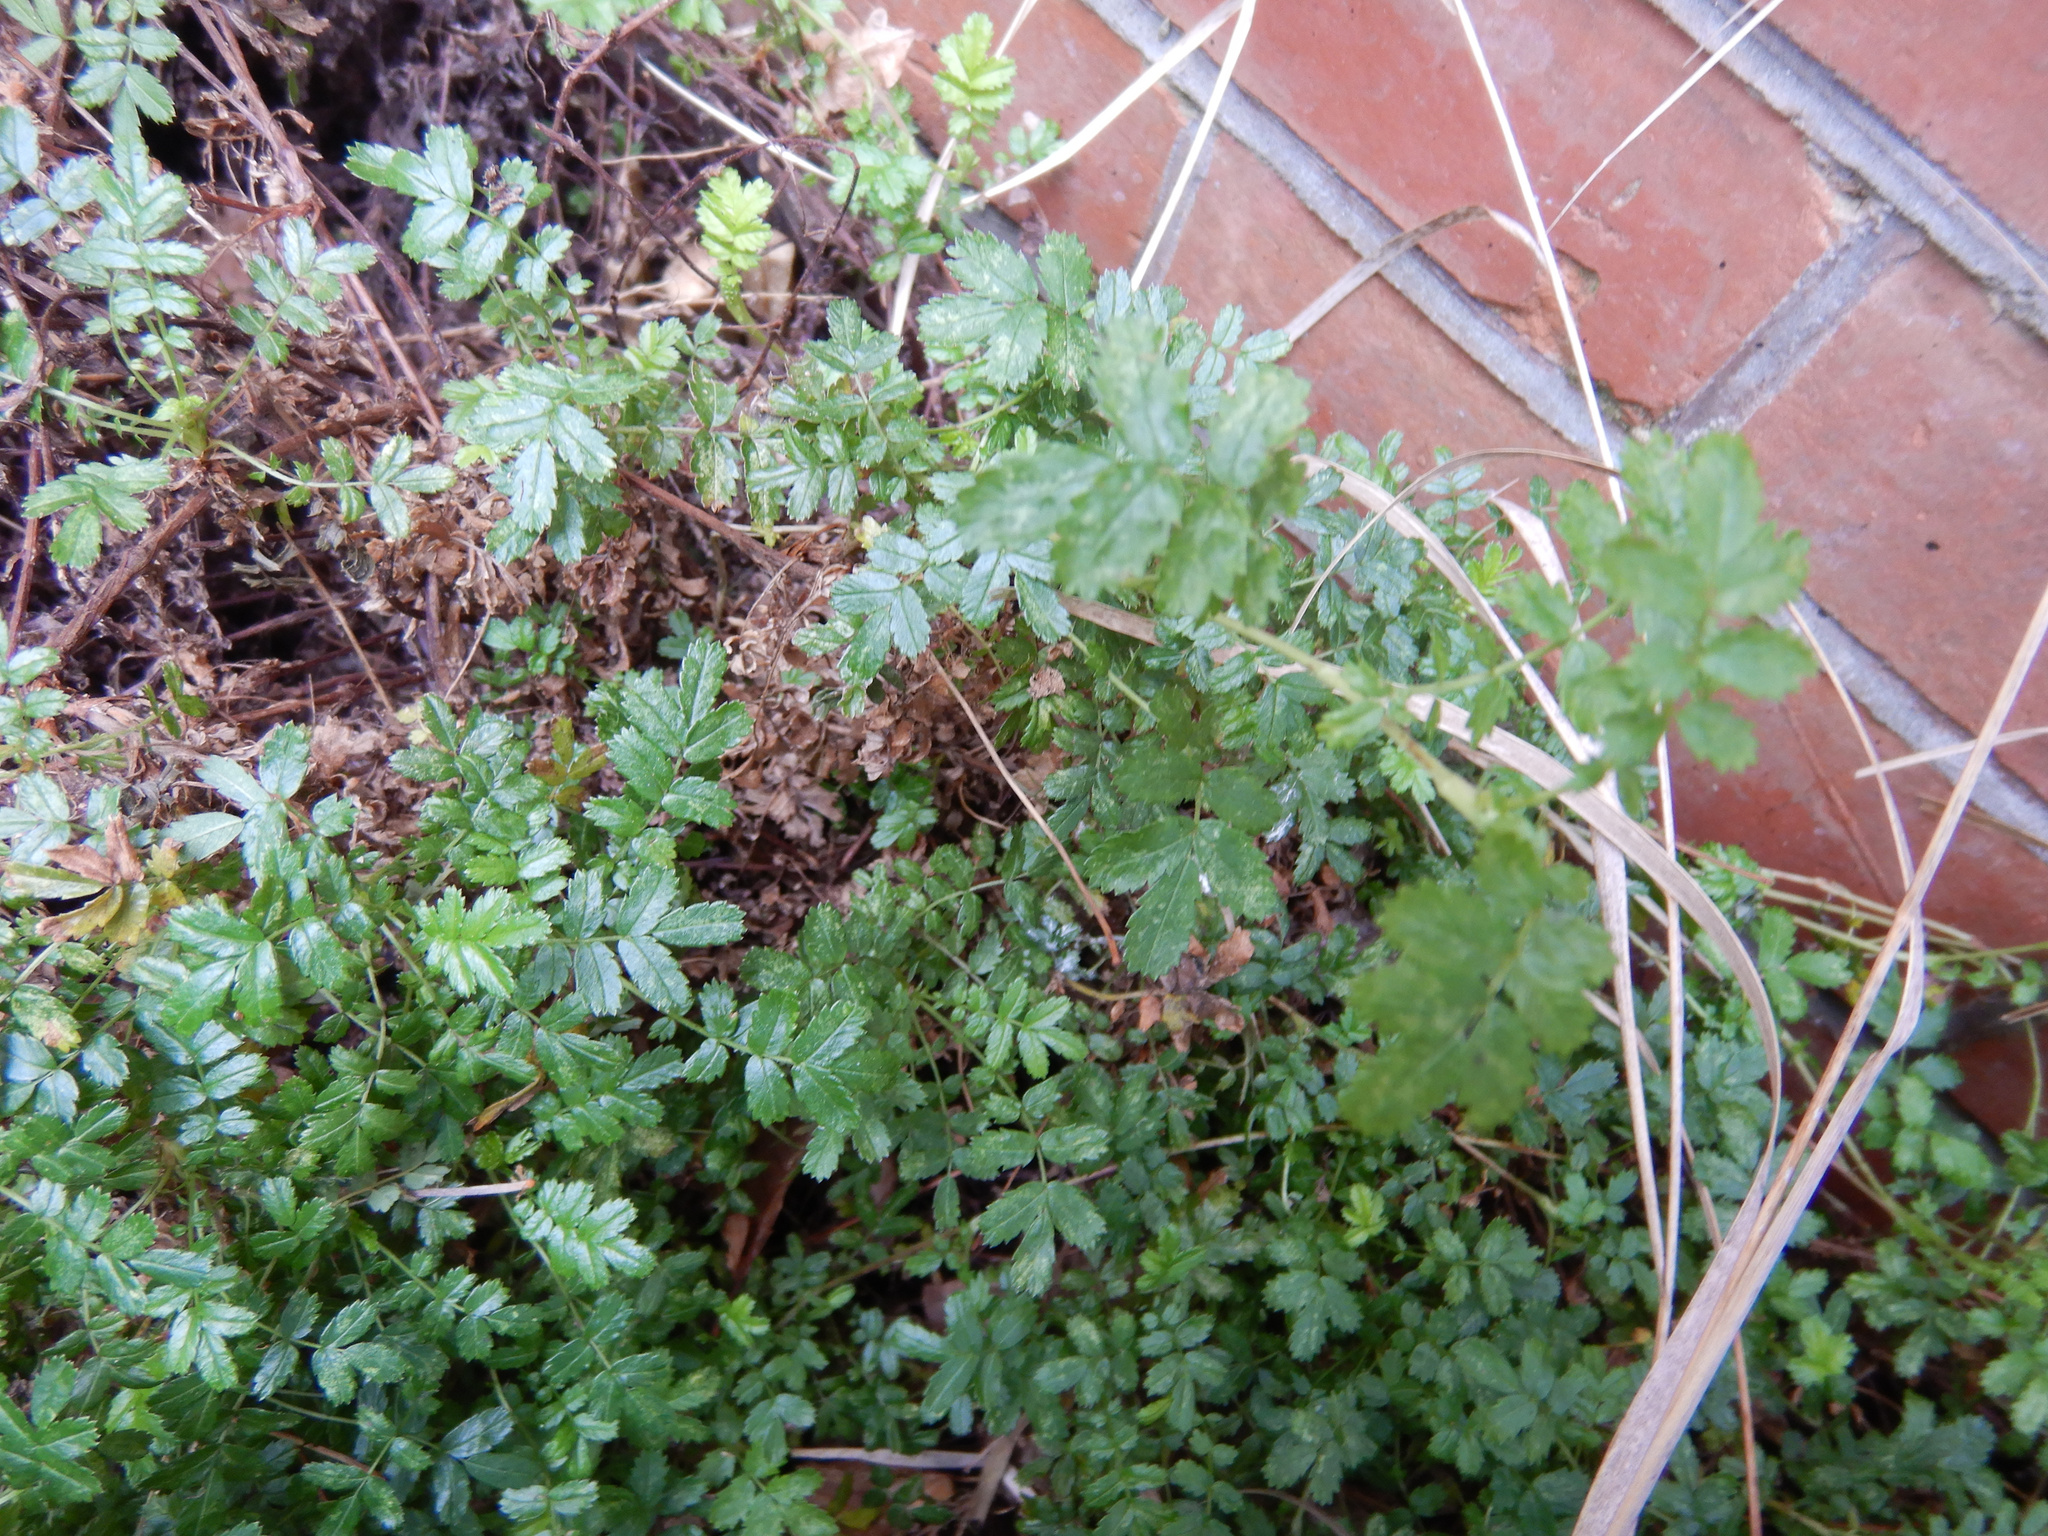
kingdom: Plantae
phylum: Tracheophyta
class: Magnoliopsida
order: Rosales
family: Rosaceae
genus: Acaena
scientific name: Acaena novae-zelandiae
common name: Pirri-pirri-bur
